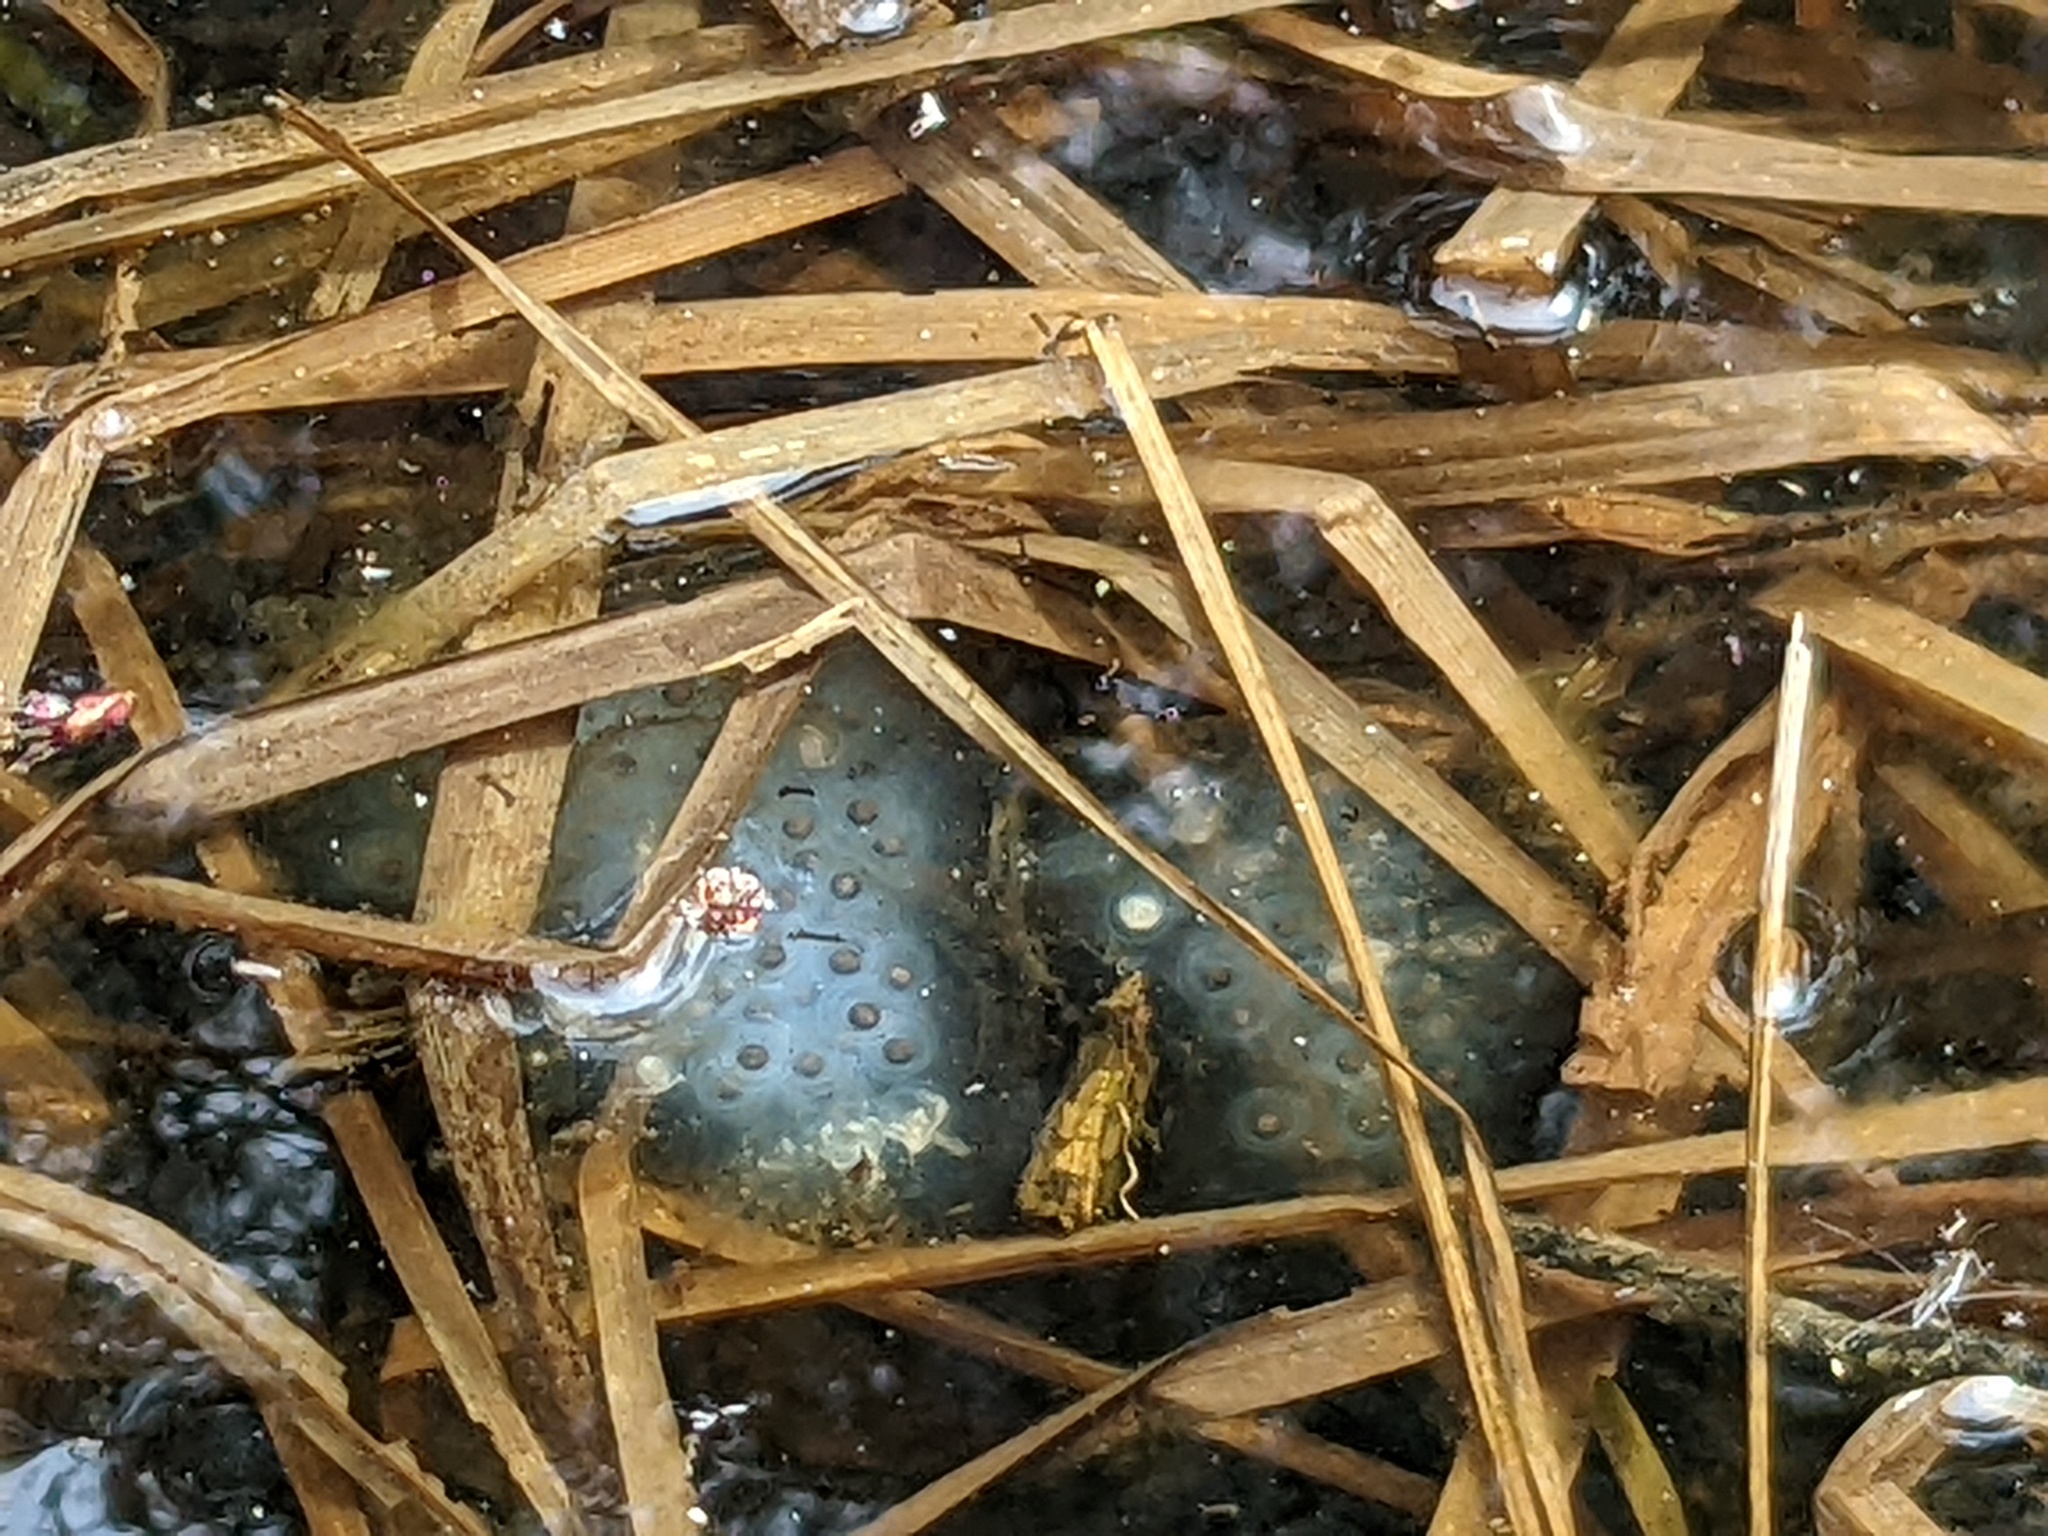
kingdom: Animalia
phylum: Chordata
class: Amphibia
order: Caudata
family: Ambystomatidae
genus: Ambystoma
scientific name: Ambystoma maculatum
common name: Spotted salamander
